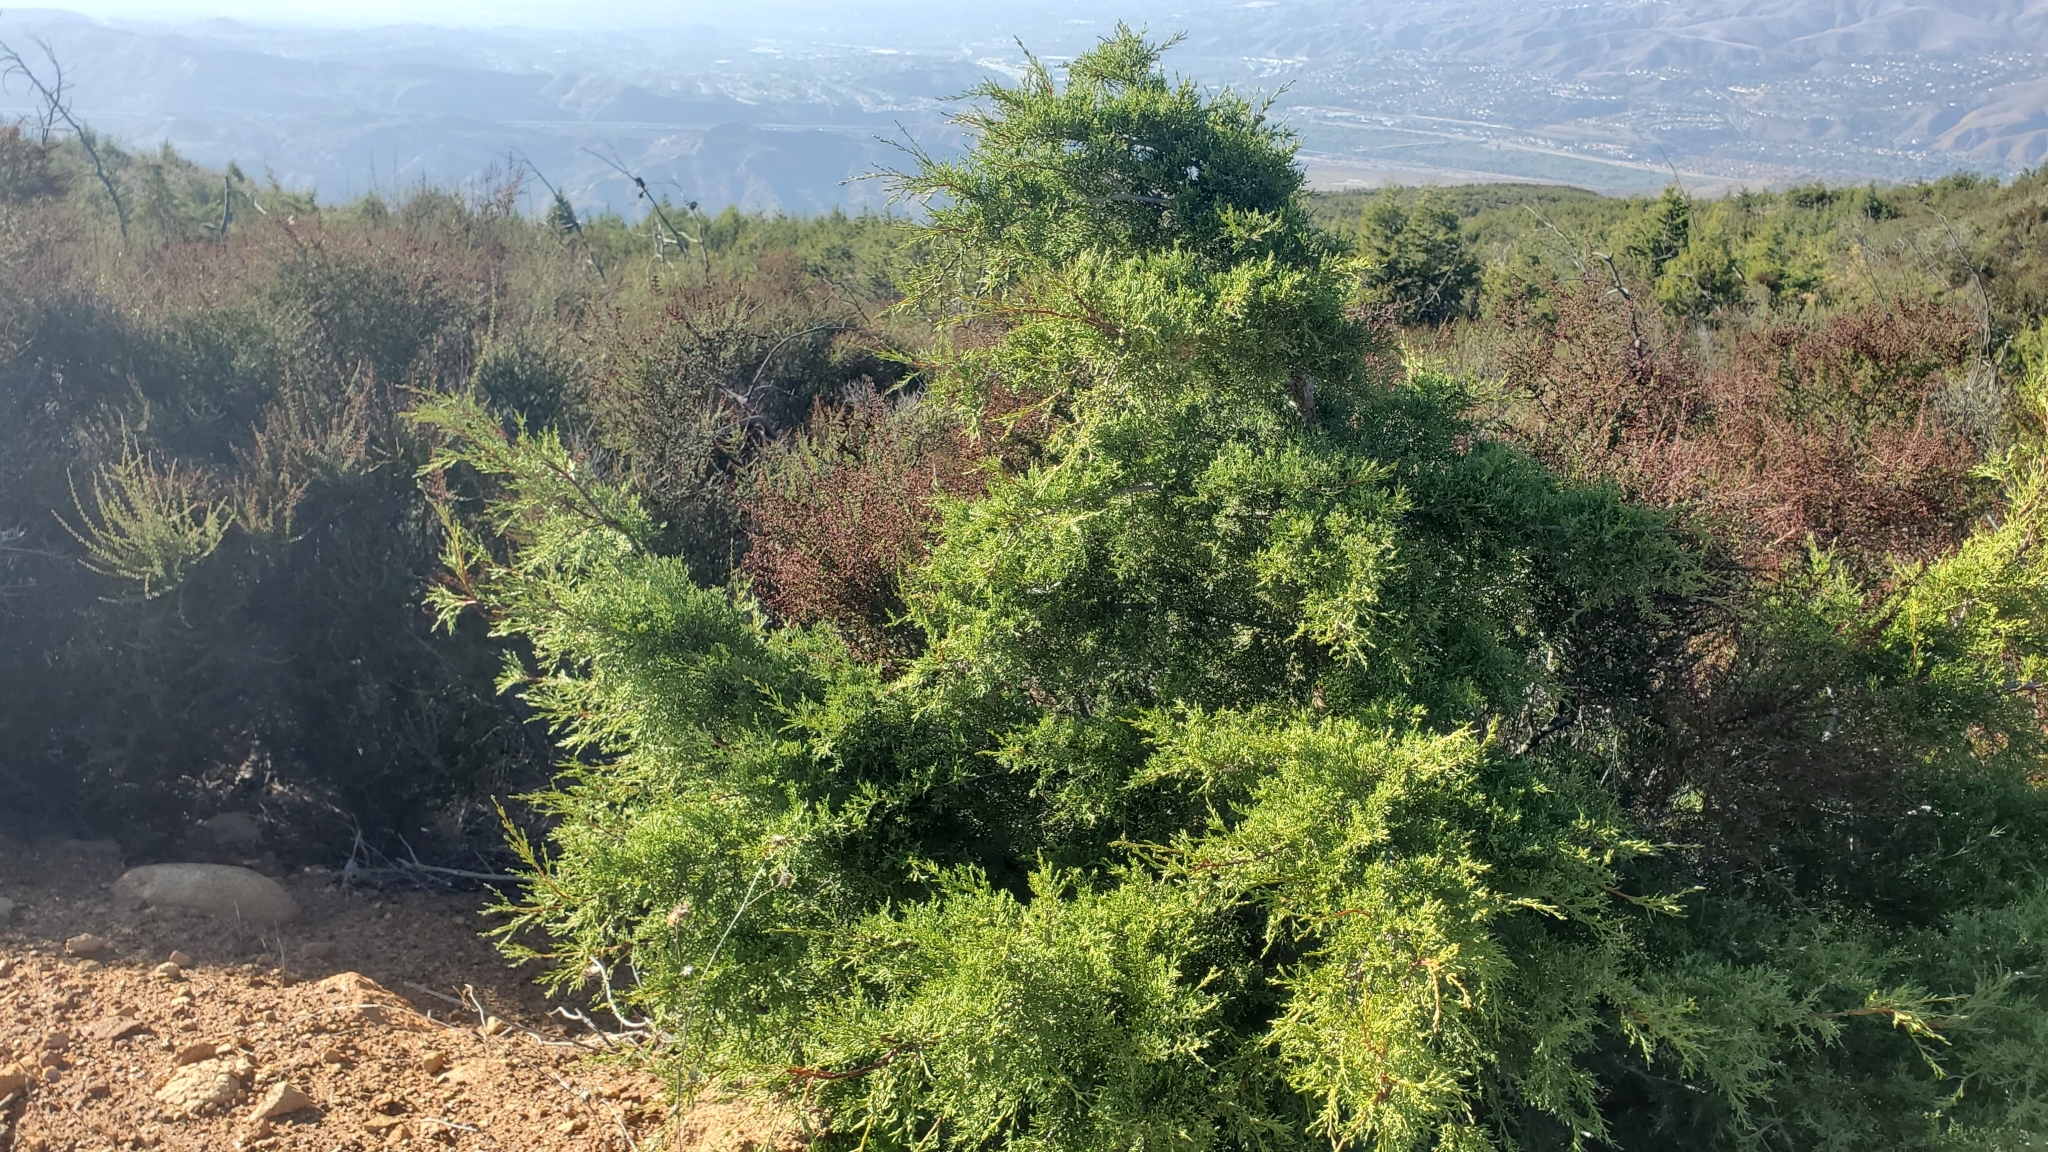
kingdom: Plantae
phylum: Tracheophyta
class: Pinopsida
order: Pinales
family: Cupressaceae
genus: Cupressus
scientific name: Cupressus guadalupensis
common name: Forbes cypress
